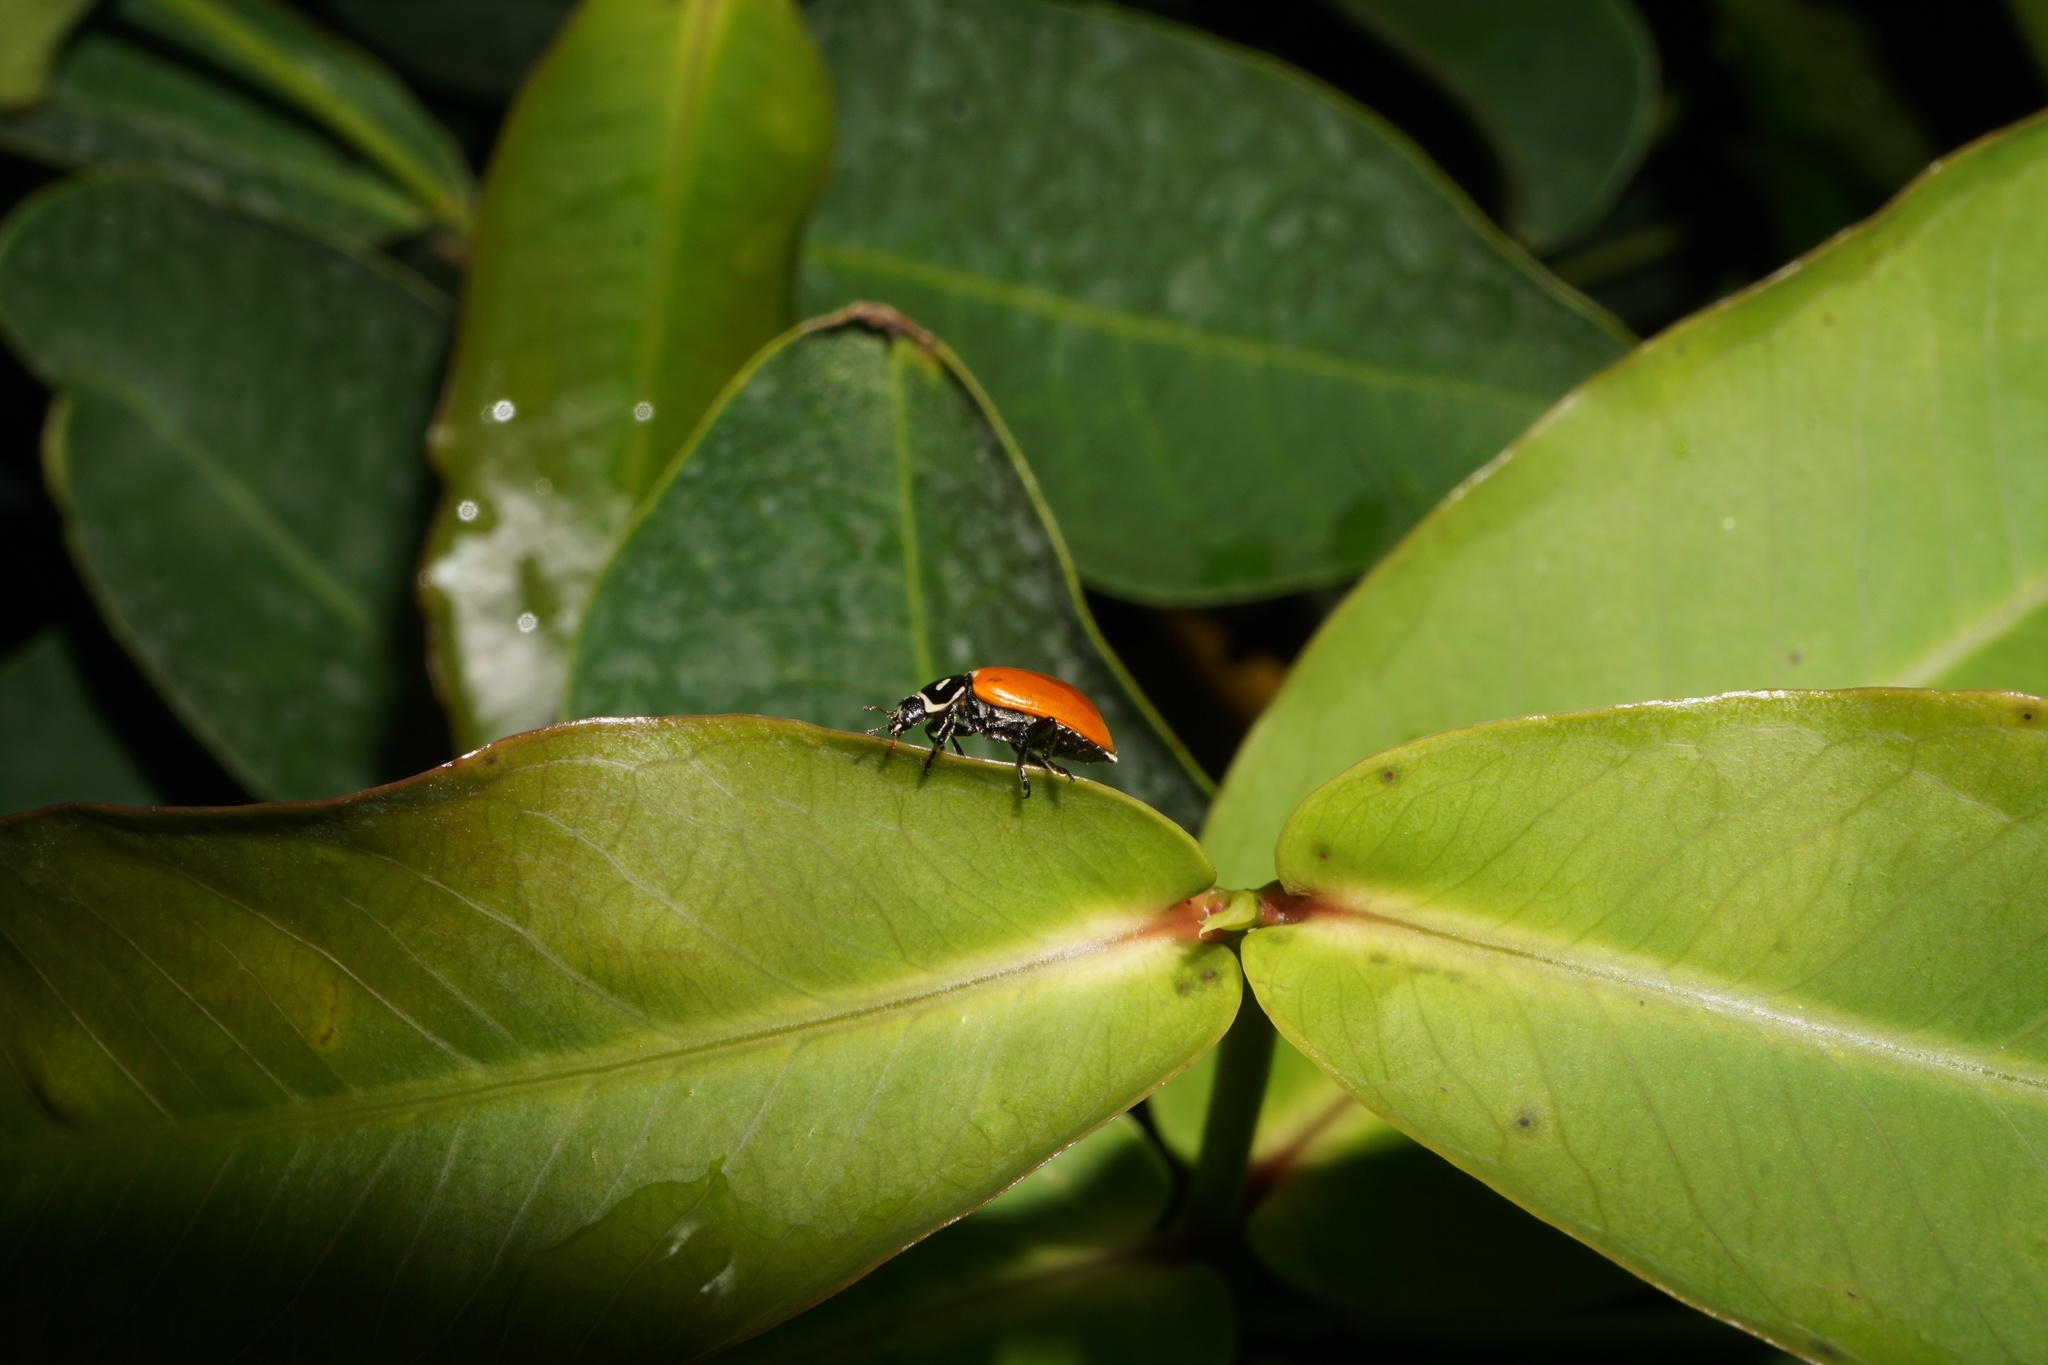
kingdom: Animalia
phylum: Arthropoda
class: Insecta
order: Coleoptera
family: Coccinellidae
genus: Hippodamia
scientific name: Hippodamia convergens
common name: Convergent lady beetle
